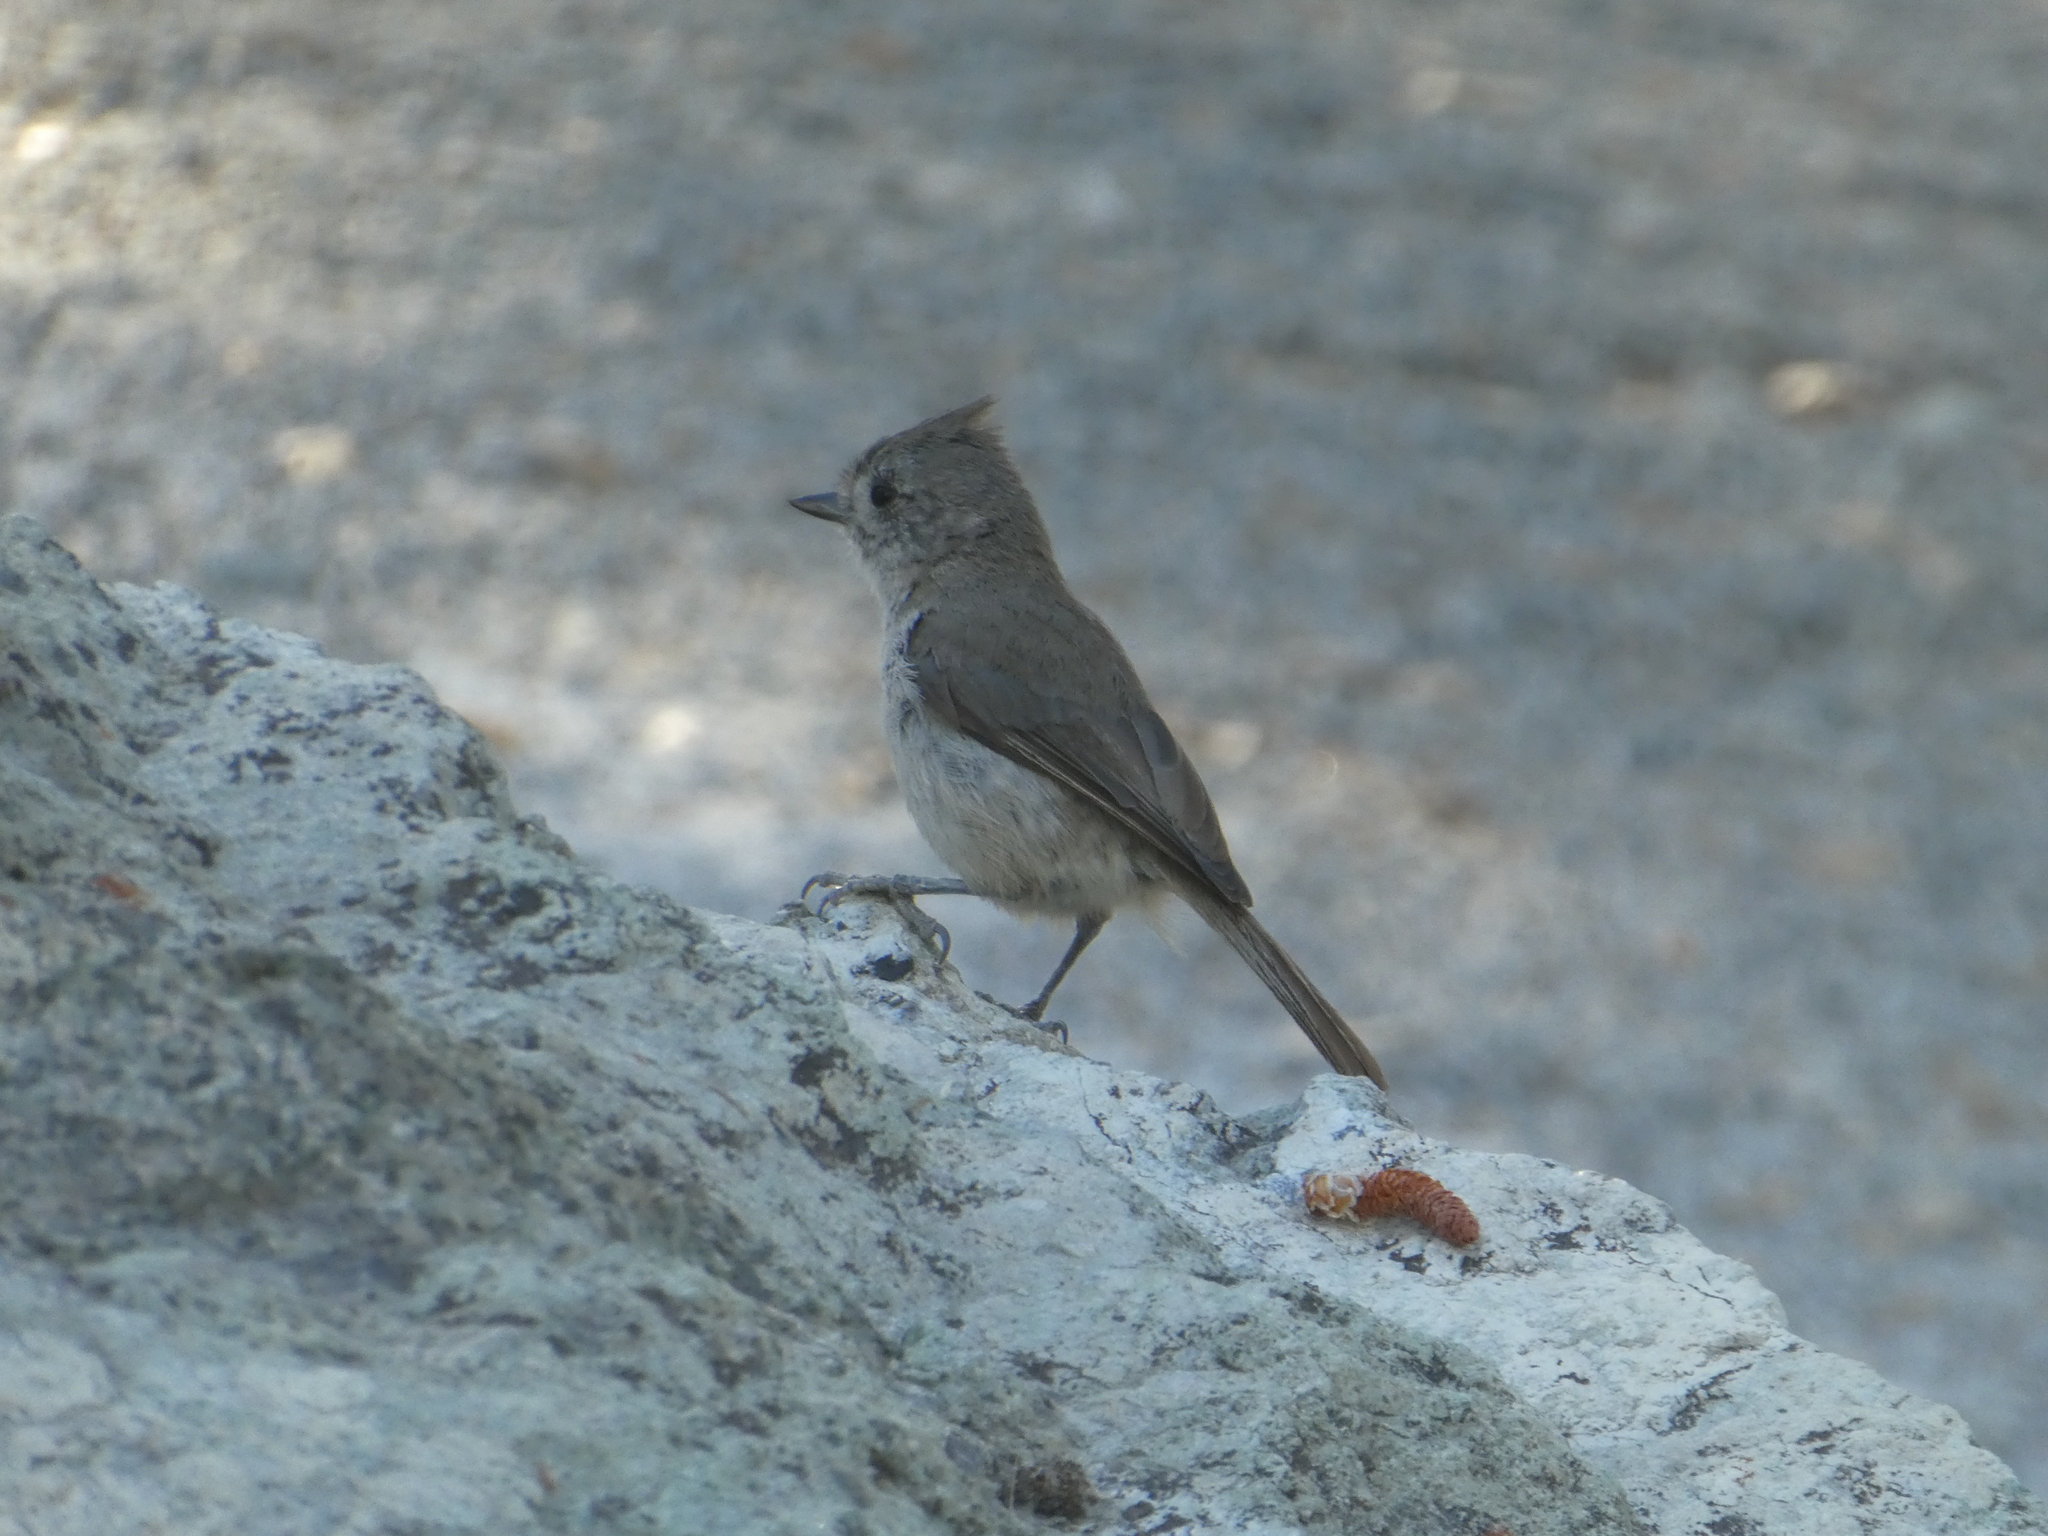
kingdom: Animalia
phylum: Chordata
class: Aves
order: Passeriformes
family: Paridae
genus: Baeolophus
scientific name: Baeolophus inornatus
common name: Oak titmouse
